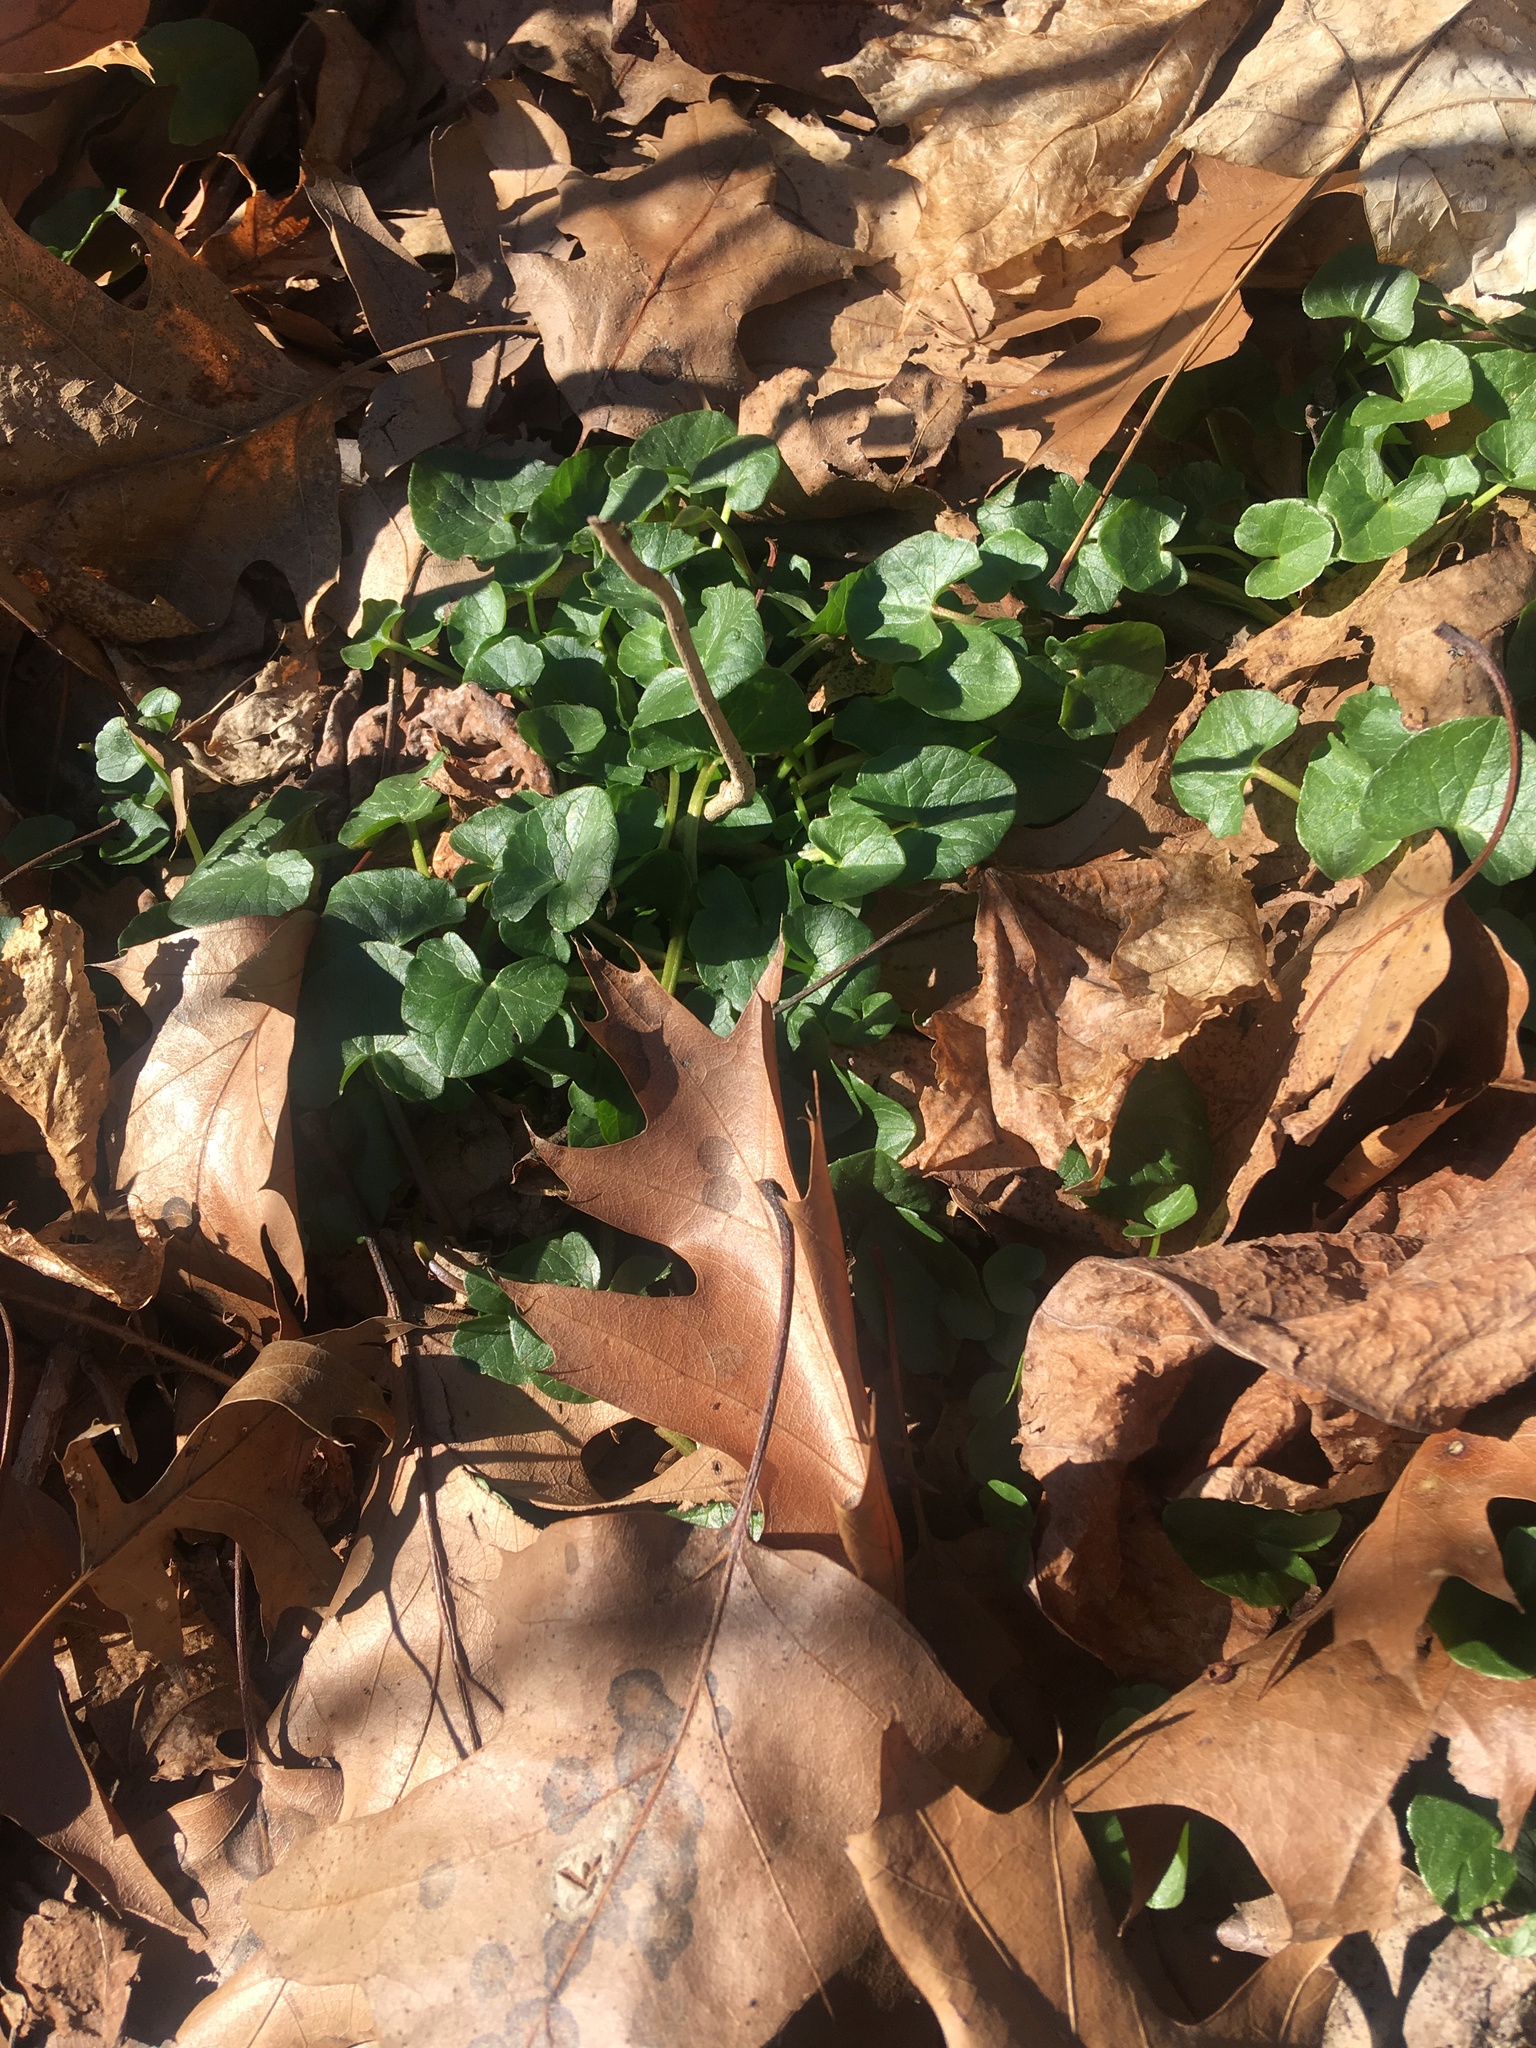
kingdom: Plantae
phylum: Tracheophyta
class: Magnoliopsida
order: Ranunculales
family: Ranunculaceae
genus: Ficaria
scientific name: Ficaria verna
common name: Lesser celandine
